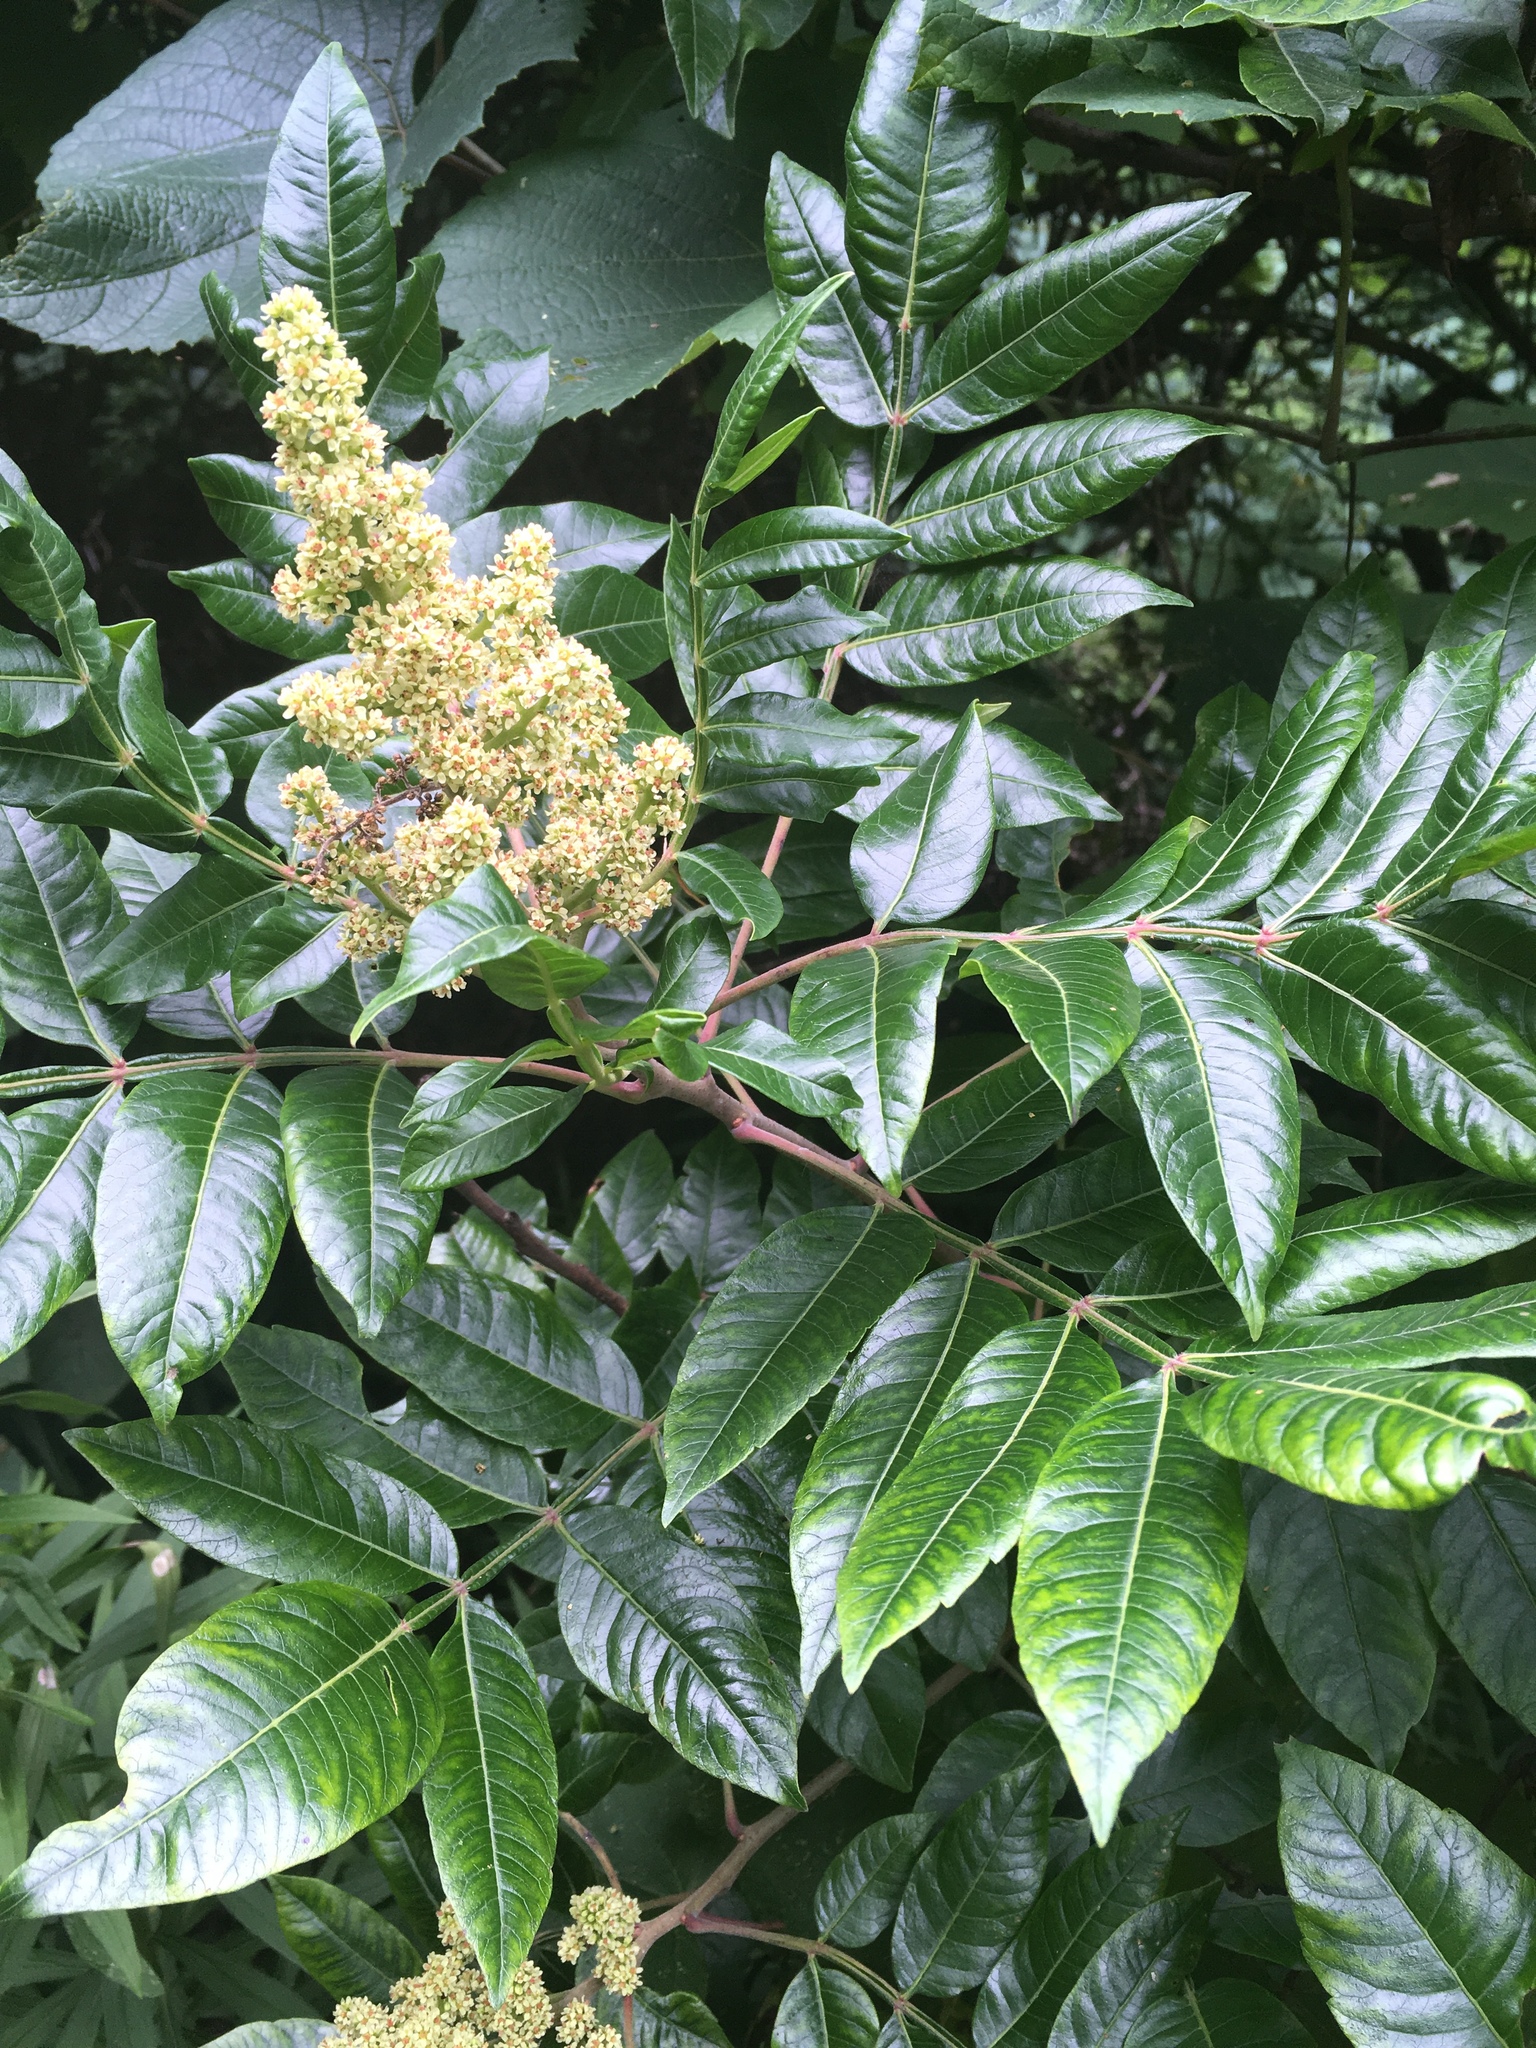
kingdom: Plantae
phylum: Tracheophyta
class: Magnoliopsida
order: Sapindales
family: Anacardiaceae
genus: Rhus
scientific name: Rhus copallina
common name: Shining sumac
